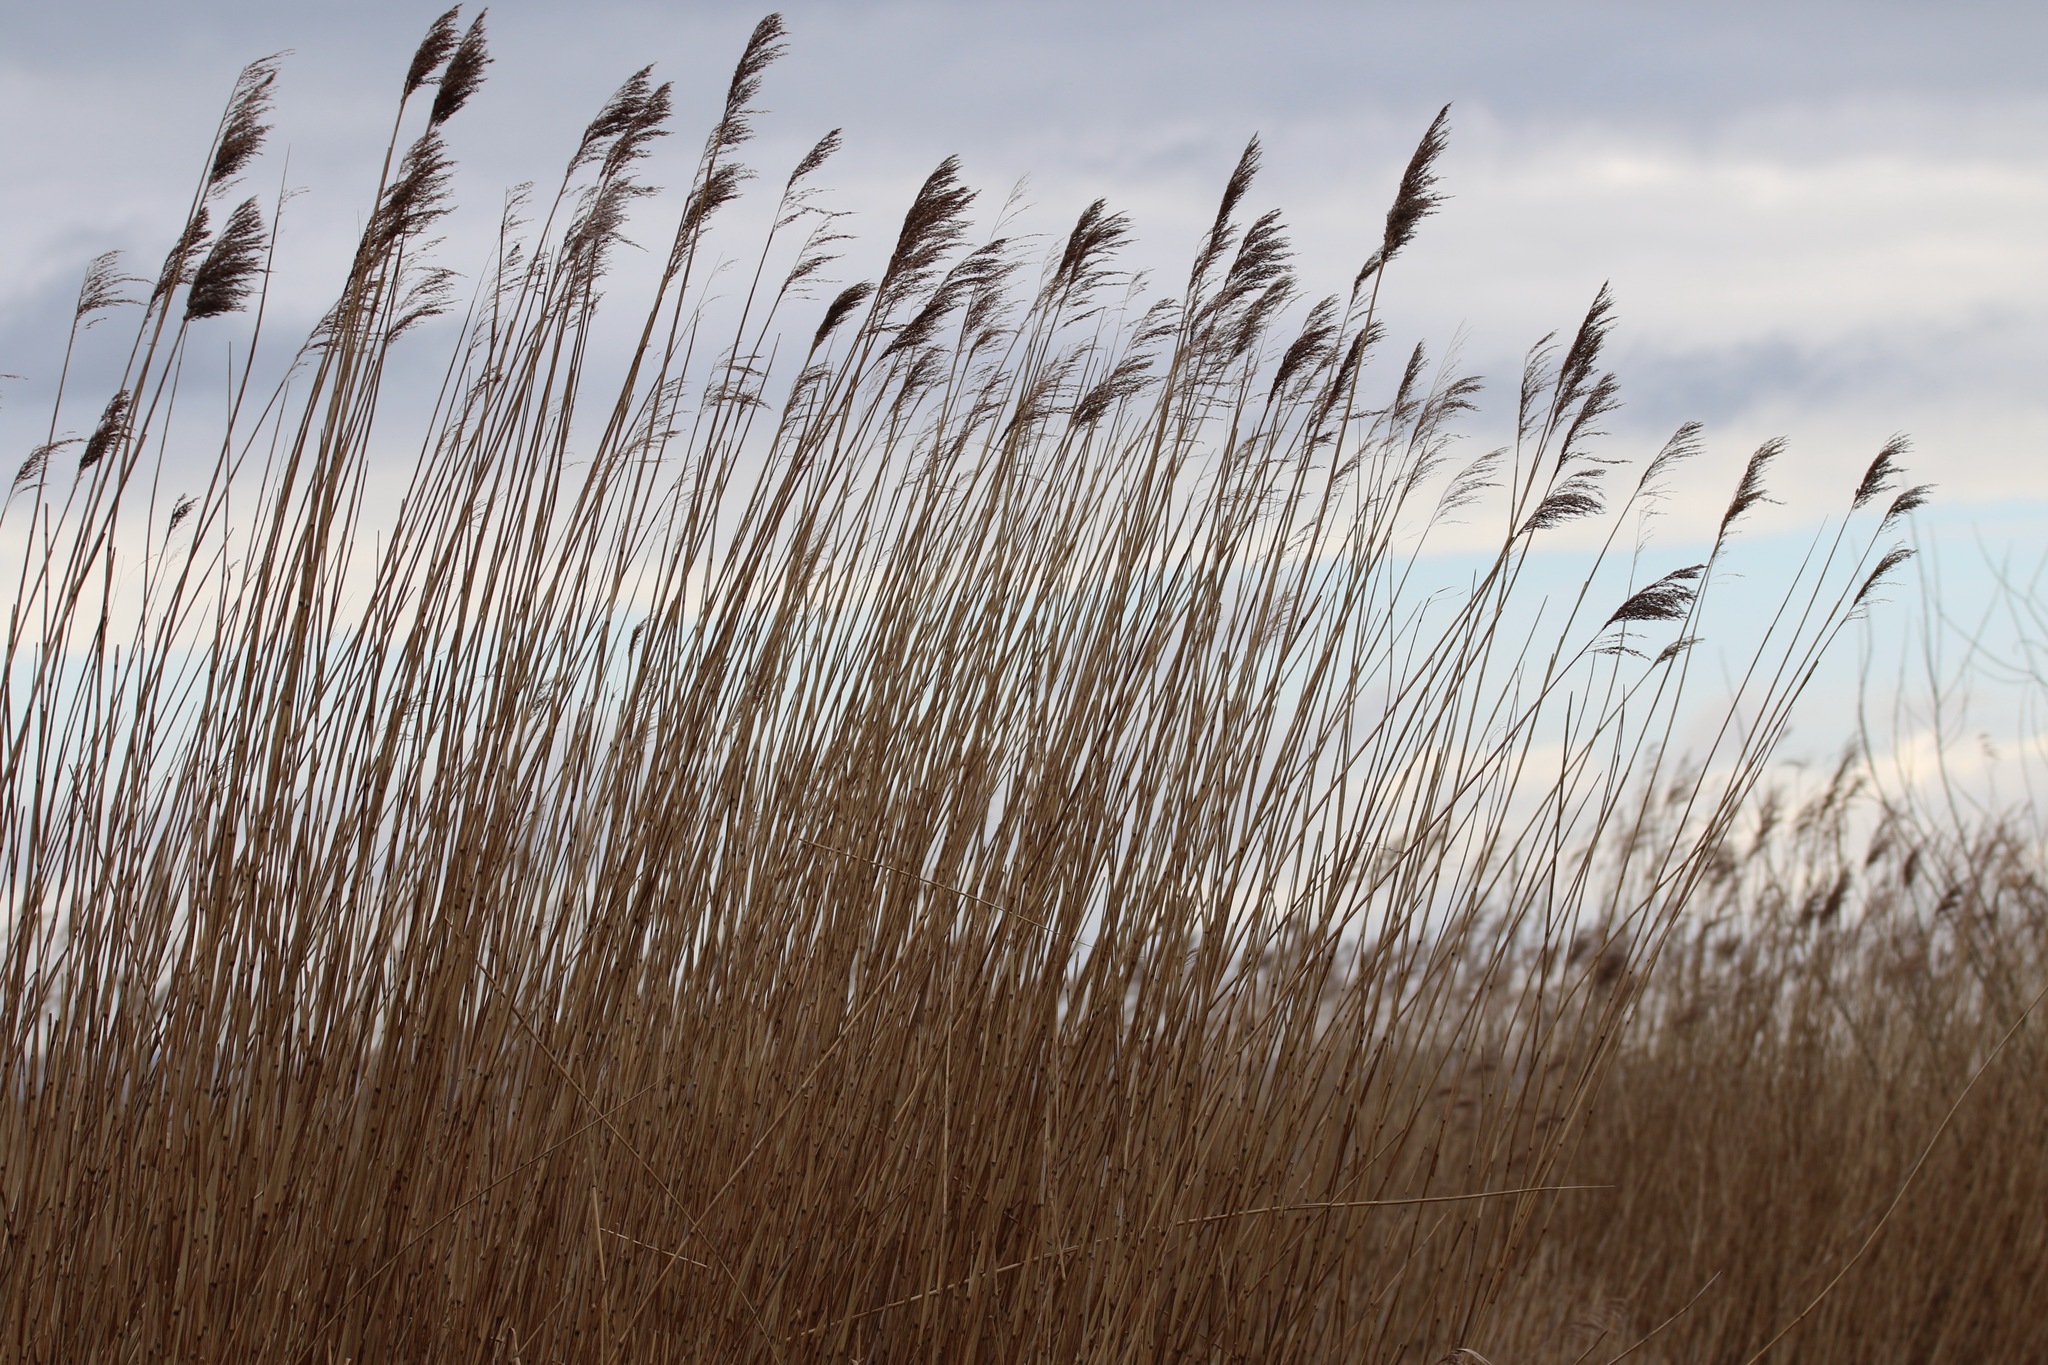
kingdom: Plantae
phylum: Tracheophyta
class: Liliopsida
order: Poales
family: Poaceae
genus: Phragmites
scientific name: Phragmites australis
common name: Common reed
